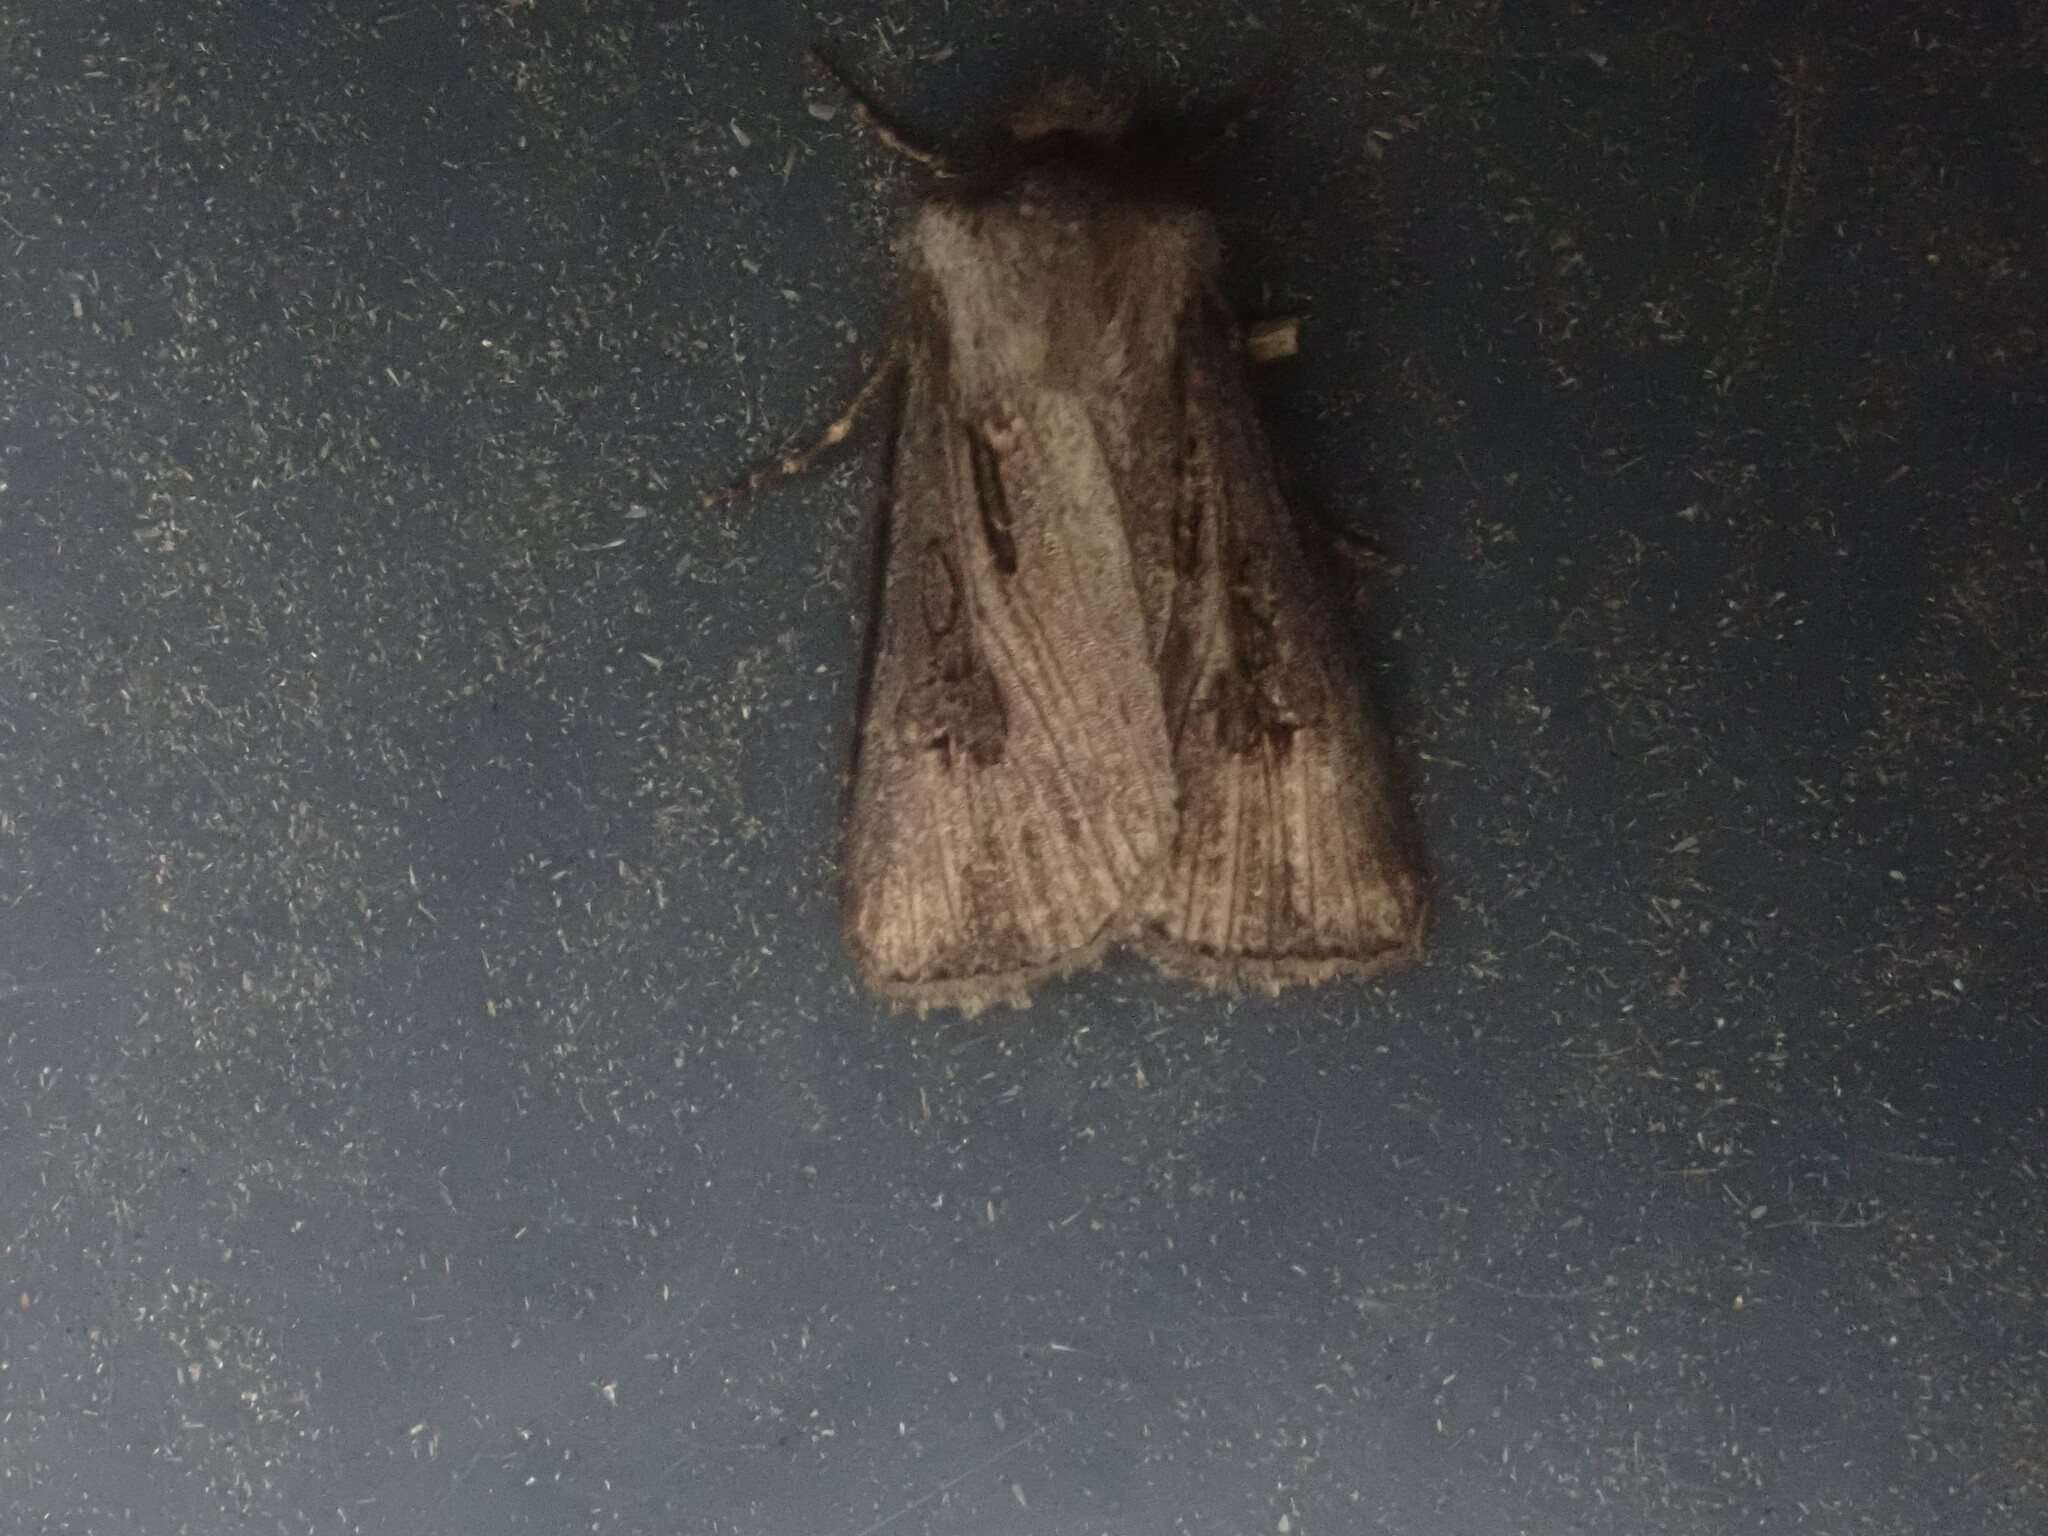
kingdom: Animalia
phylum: Arthropoda
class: Insecta
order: Lepidoptera
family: Noctuidae
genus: Agrotis
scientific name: Agrotis venerabilis
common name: Venerable dart
